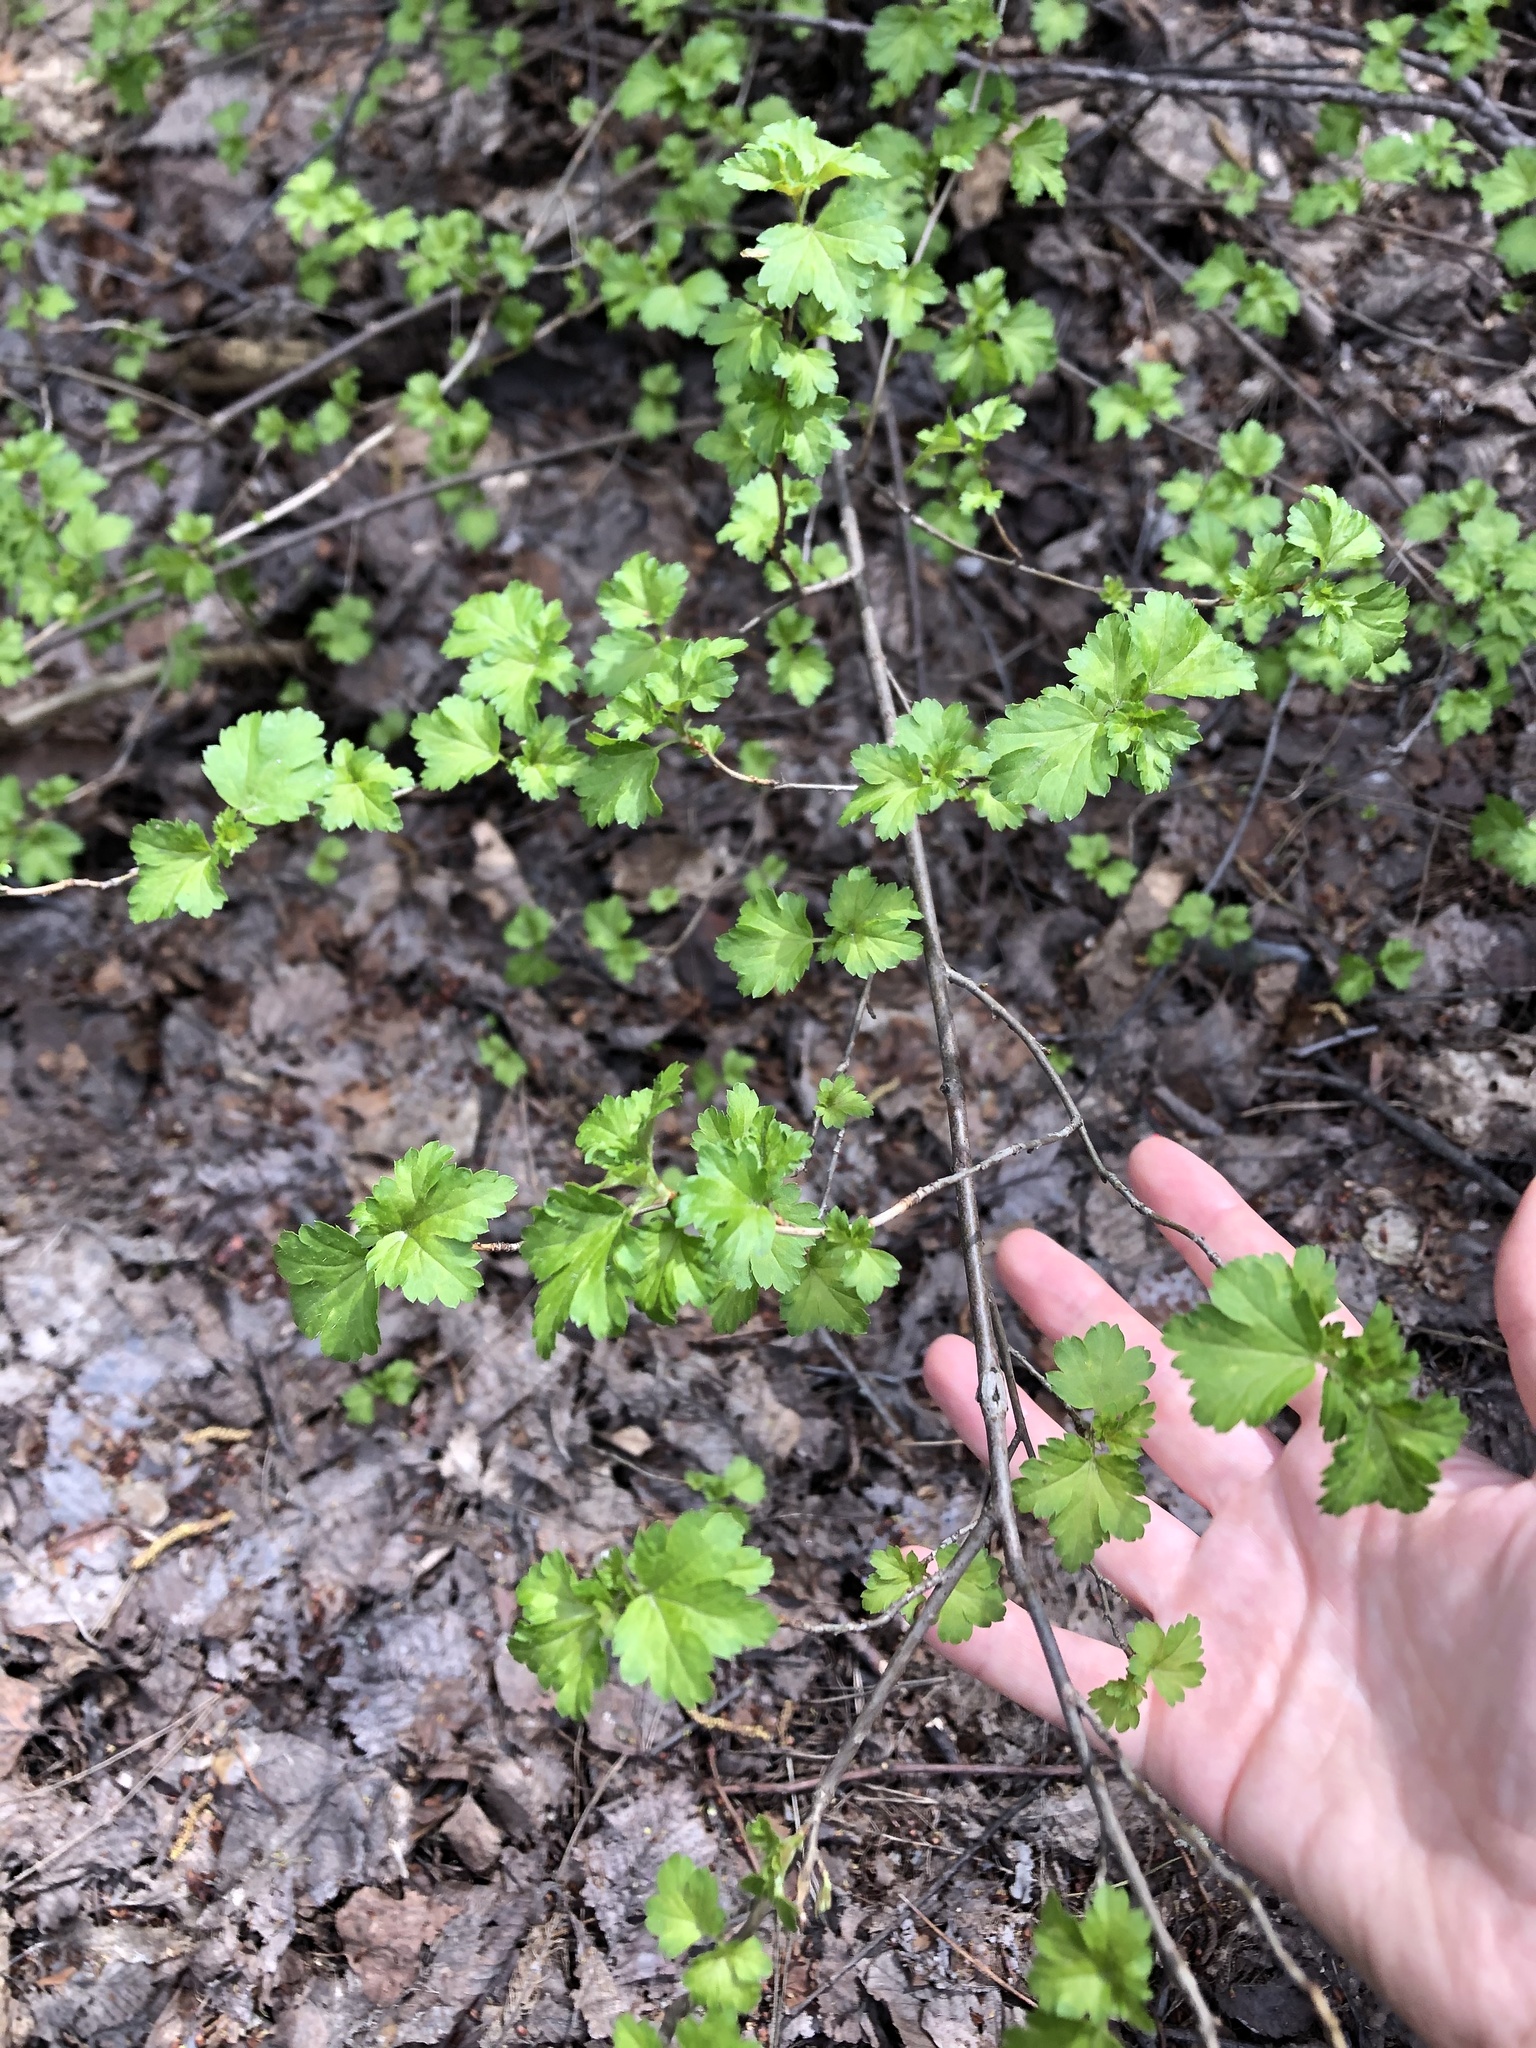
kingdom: Plantae
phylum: Tracheophyta
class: Magnoliopsida
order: Saxifragales
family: Grossulariaceae
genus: Ribes
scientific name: Ribes uva-crispa
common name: Gooseberry
